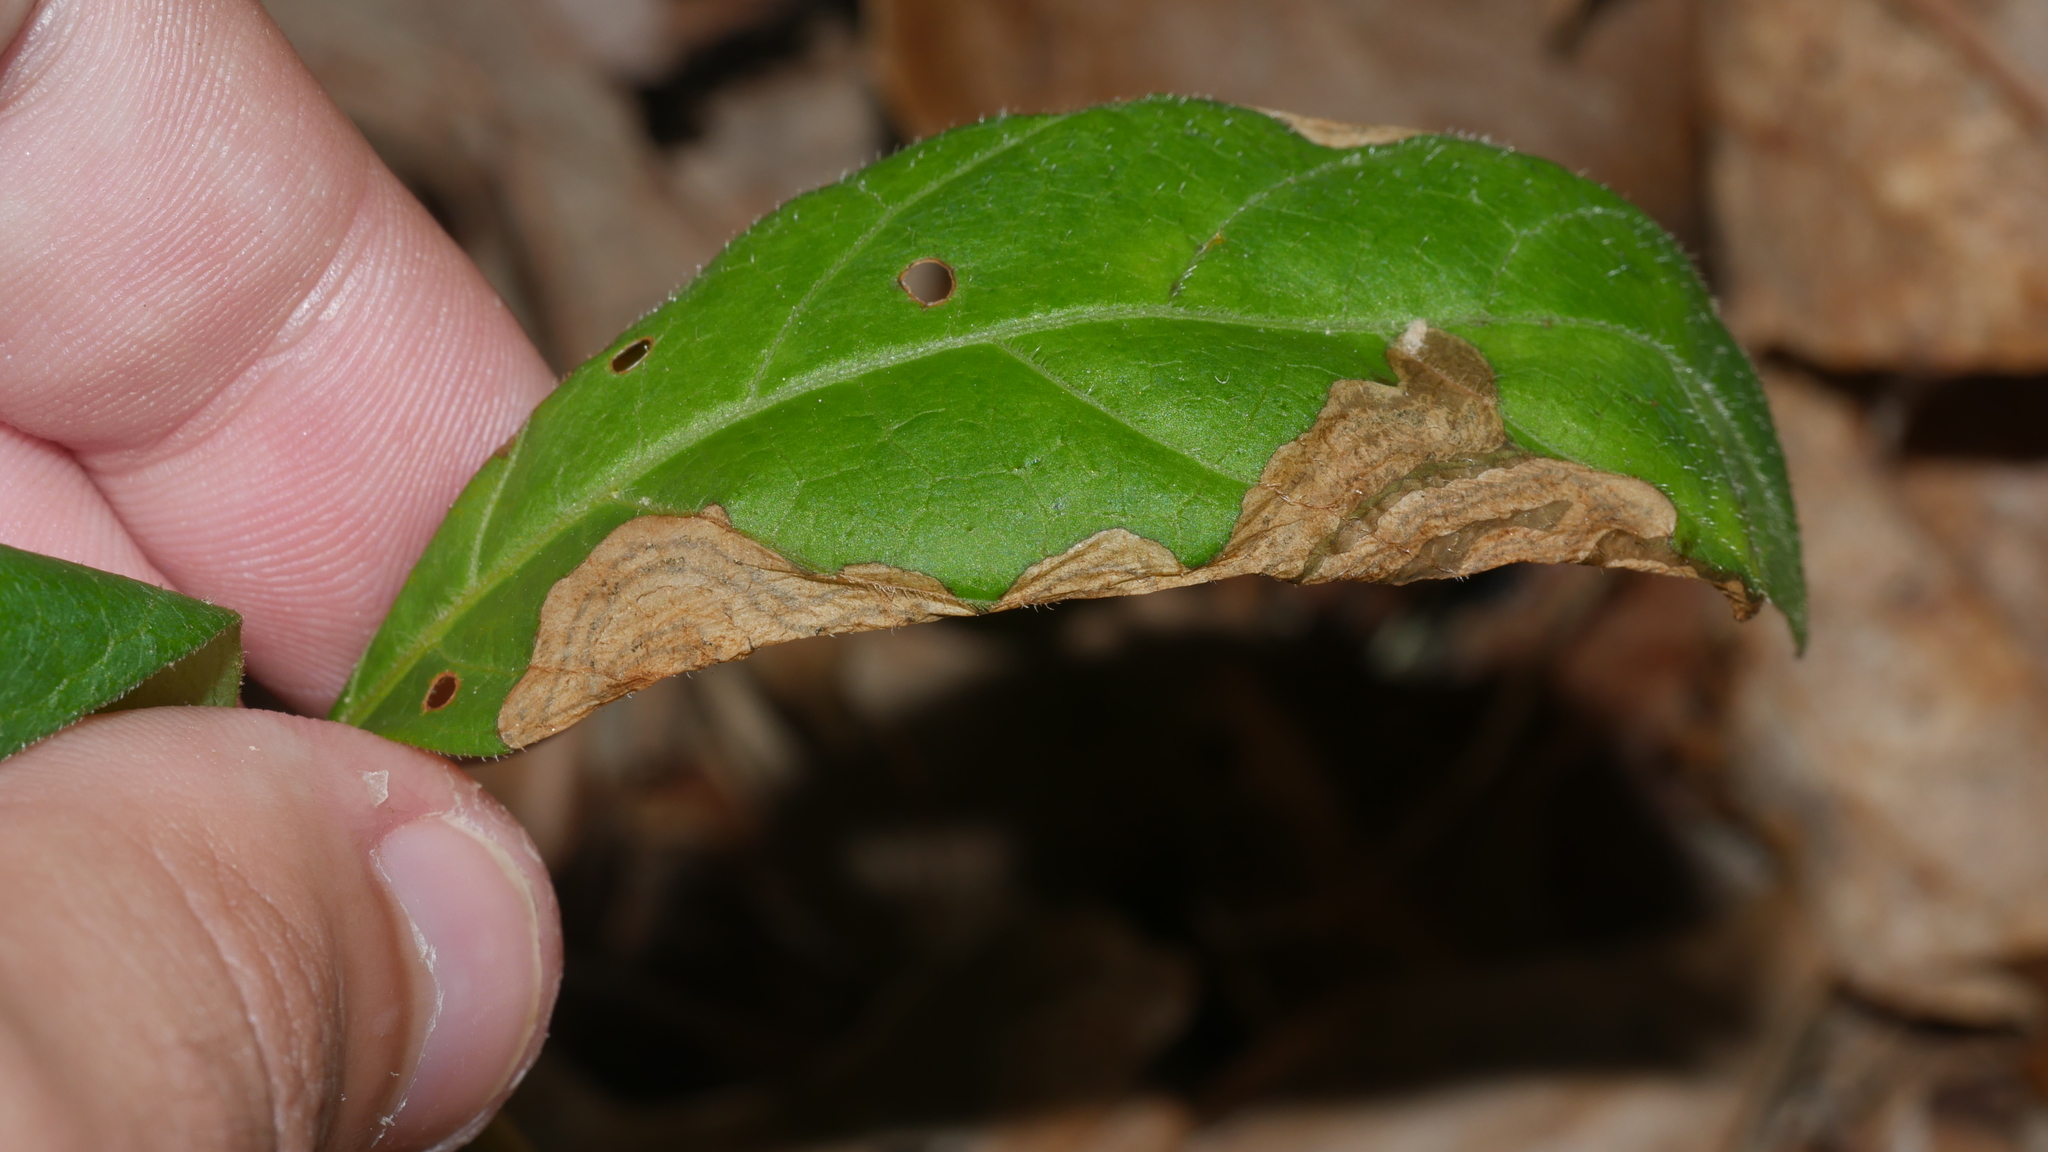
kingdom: Animalia
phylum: Arthropoda
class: Insecta
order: Coleoptera
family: Curculionidae
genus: Orchestomerus
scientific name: Orchestomerus eisemani
